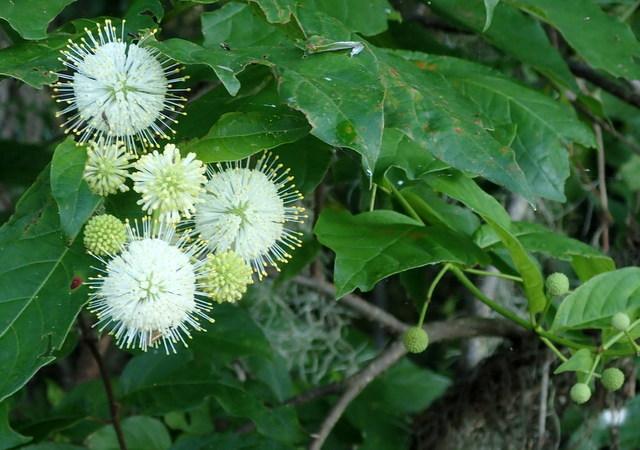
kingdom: Plantae
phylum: Tracheophyta
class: Magnoliopsida
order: Gentianales
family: Rubiaceae
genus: Cephalanthus
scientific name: Cephalanthus occidentalis
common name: Button-willow
